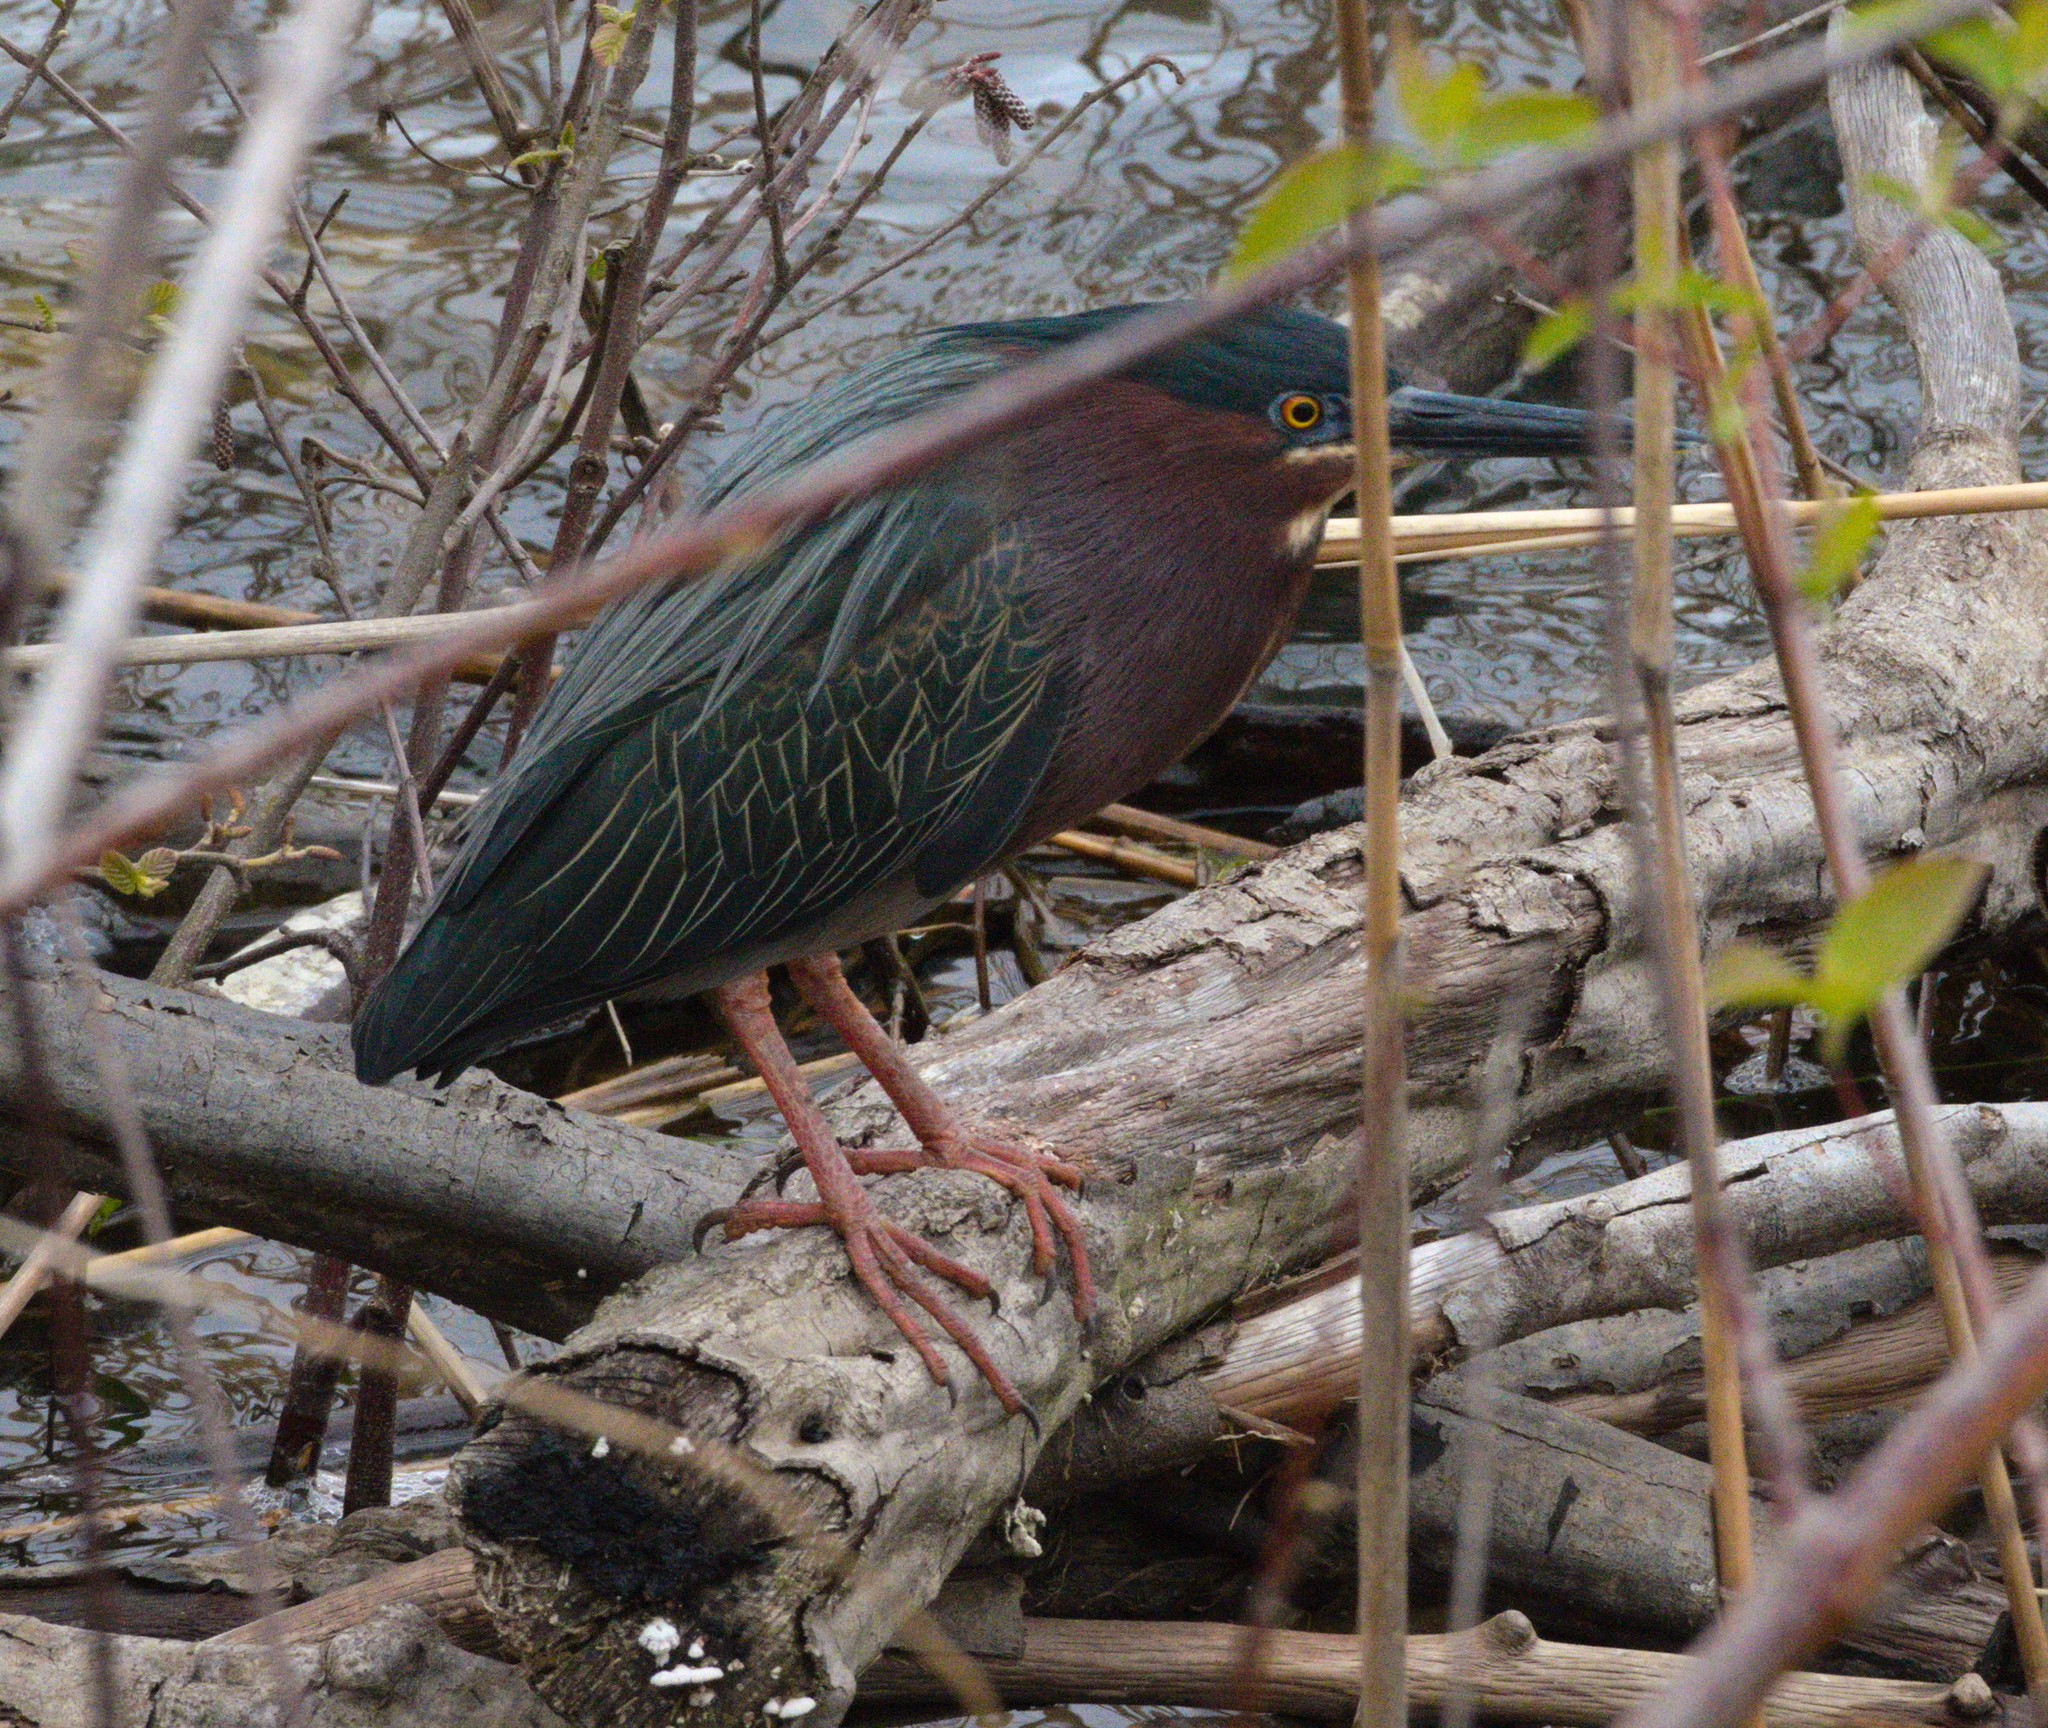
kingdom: Animalia
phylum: Chordata
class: Aves
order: Pelecaniformes
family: Ardeidae
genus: Butorides
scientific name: Butorides virescens
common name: Green heron
